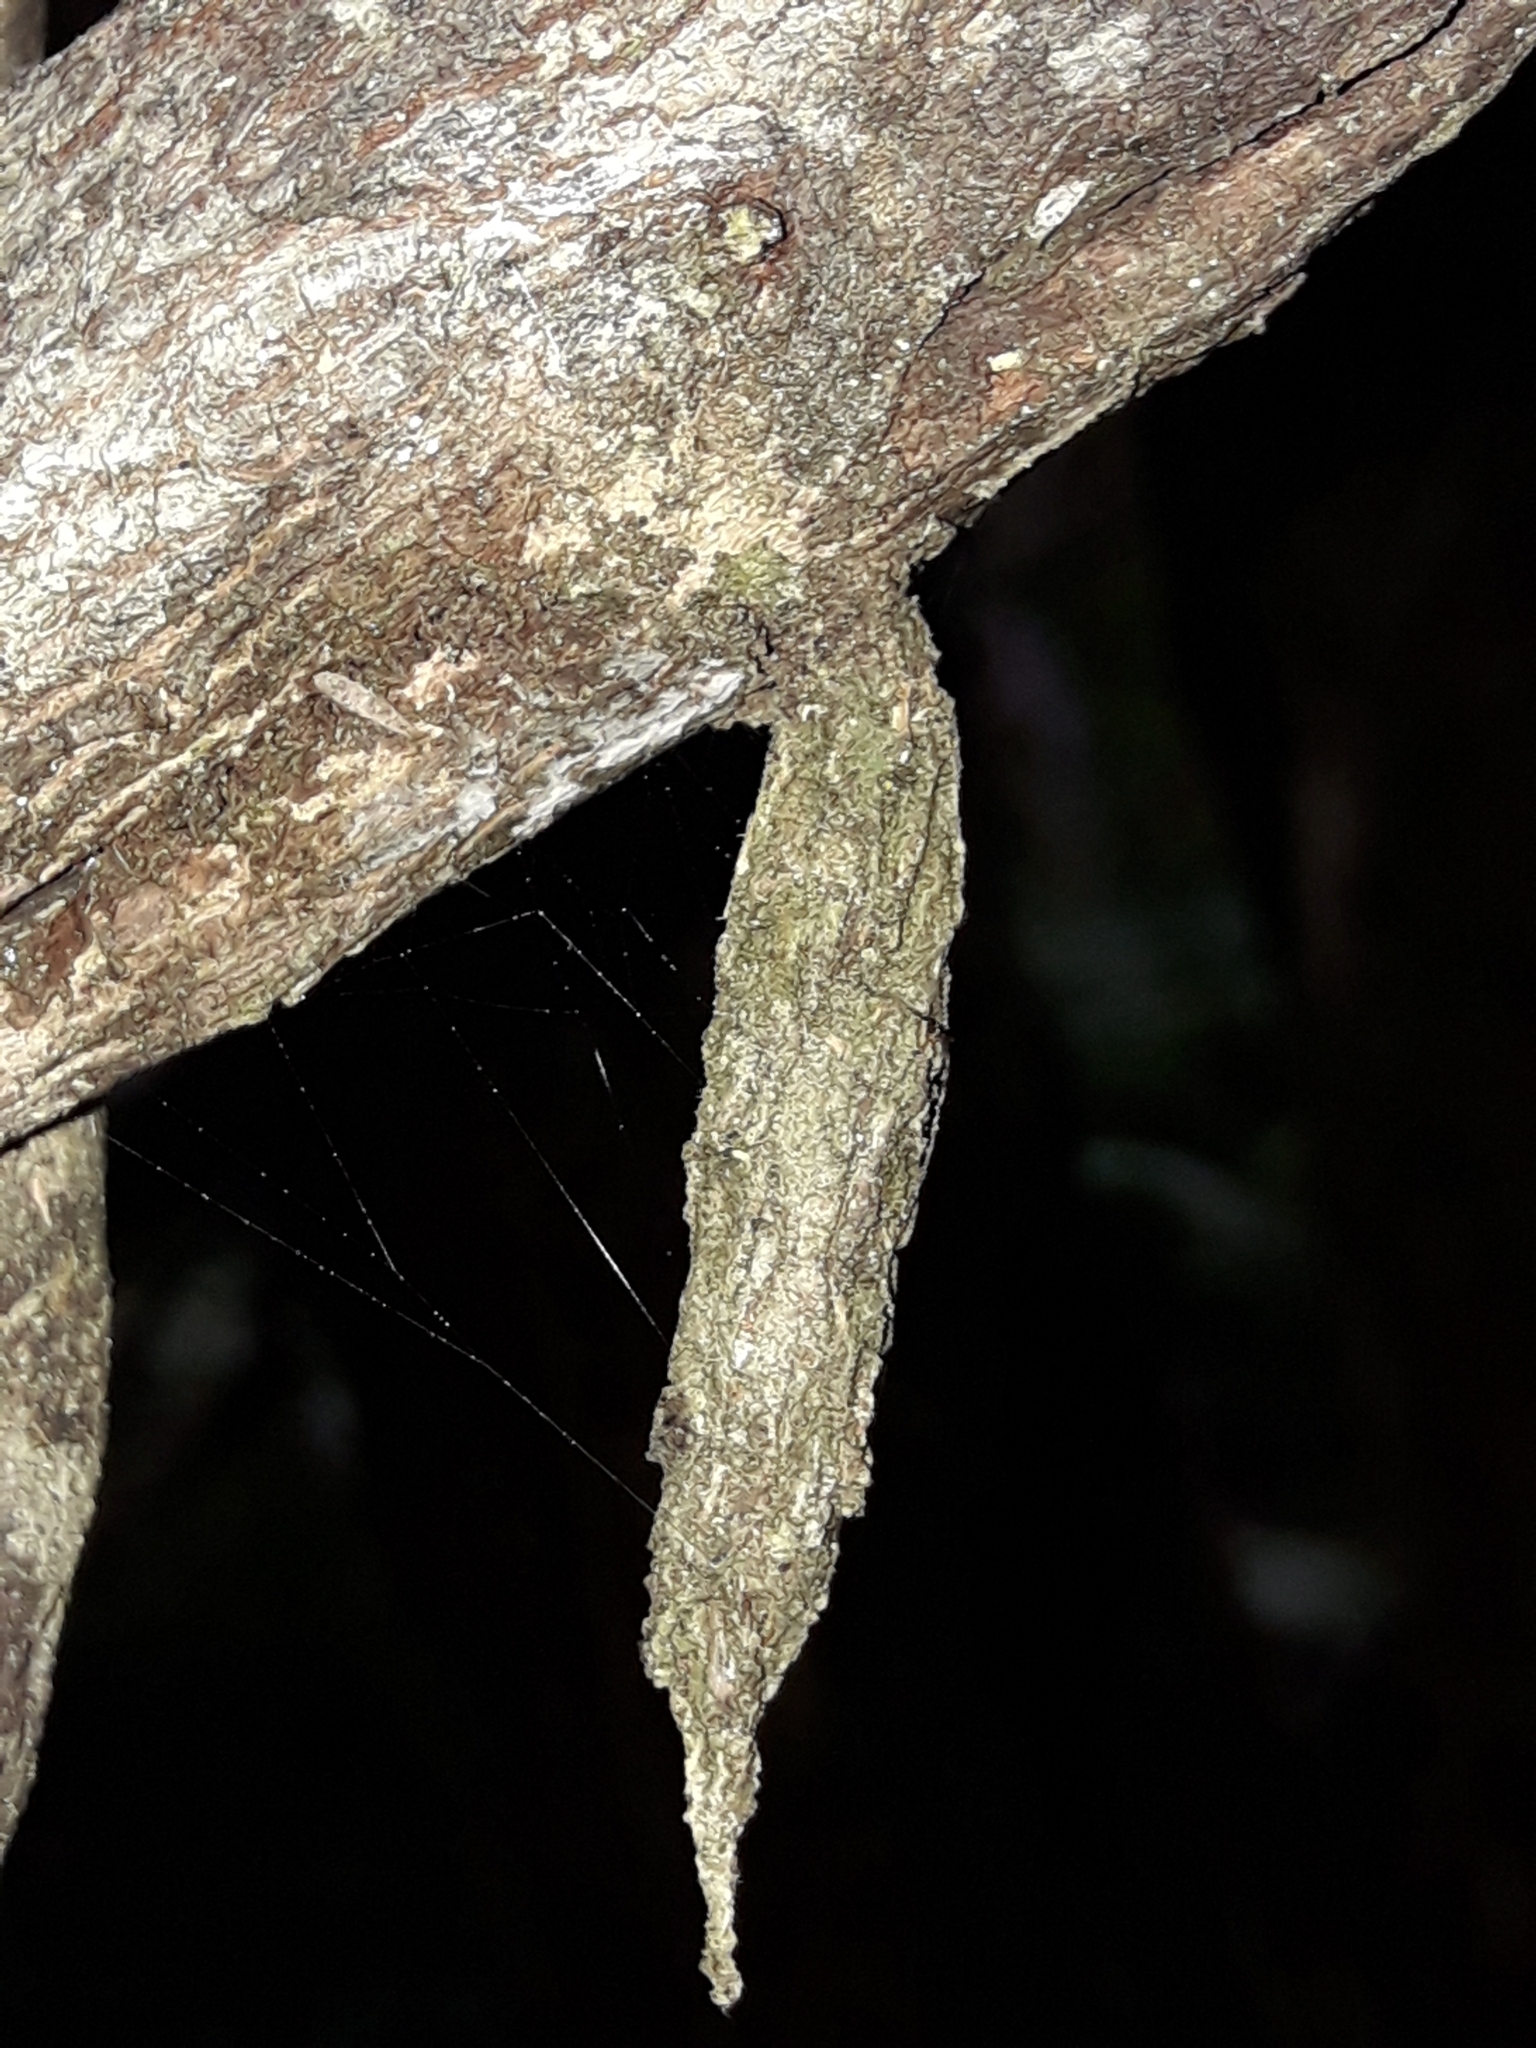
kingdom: Animalia
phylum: Arthropoda
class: Insecta
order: Lepidoptera
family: Psychidae
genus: Liothula
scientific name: Liothula omnivora
